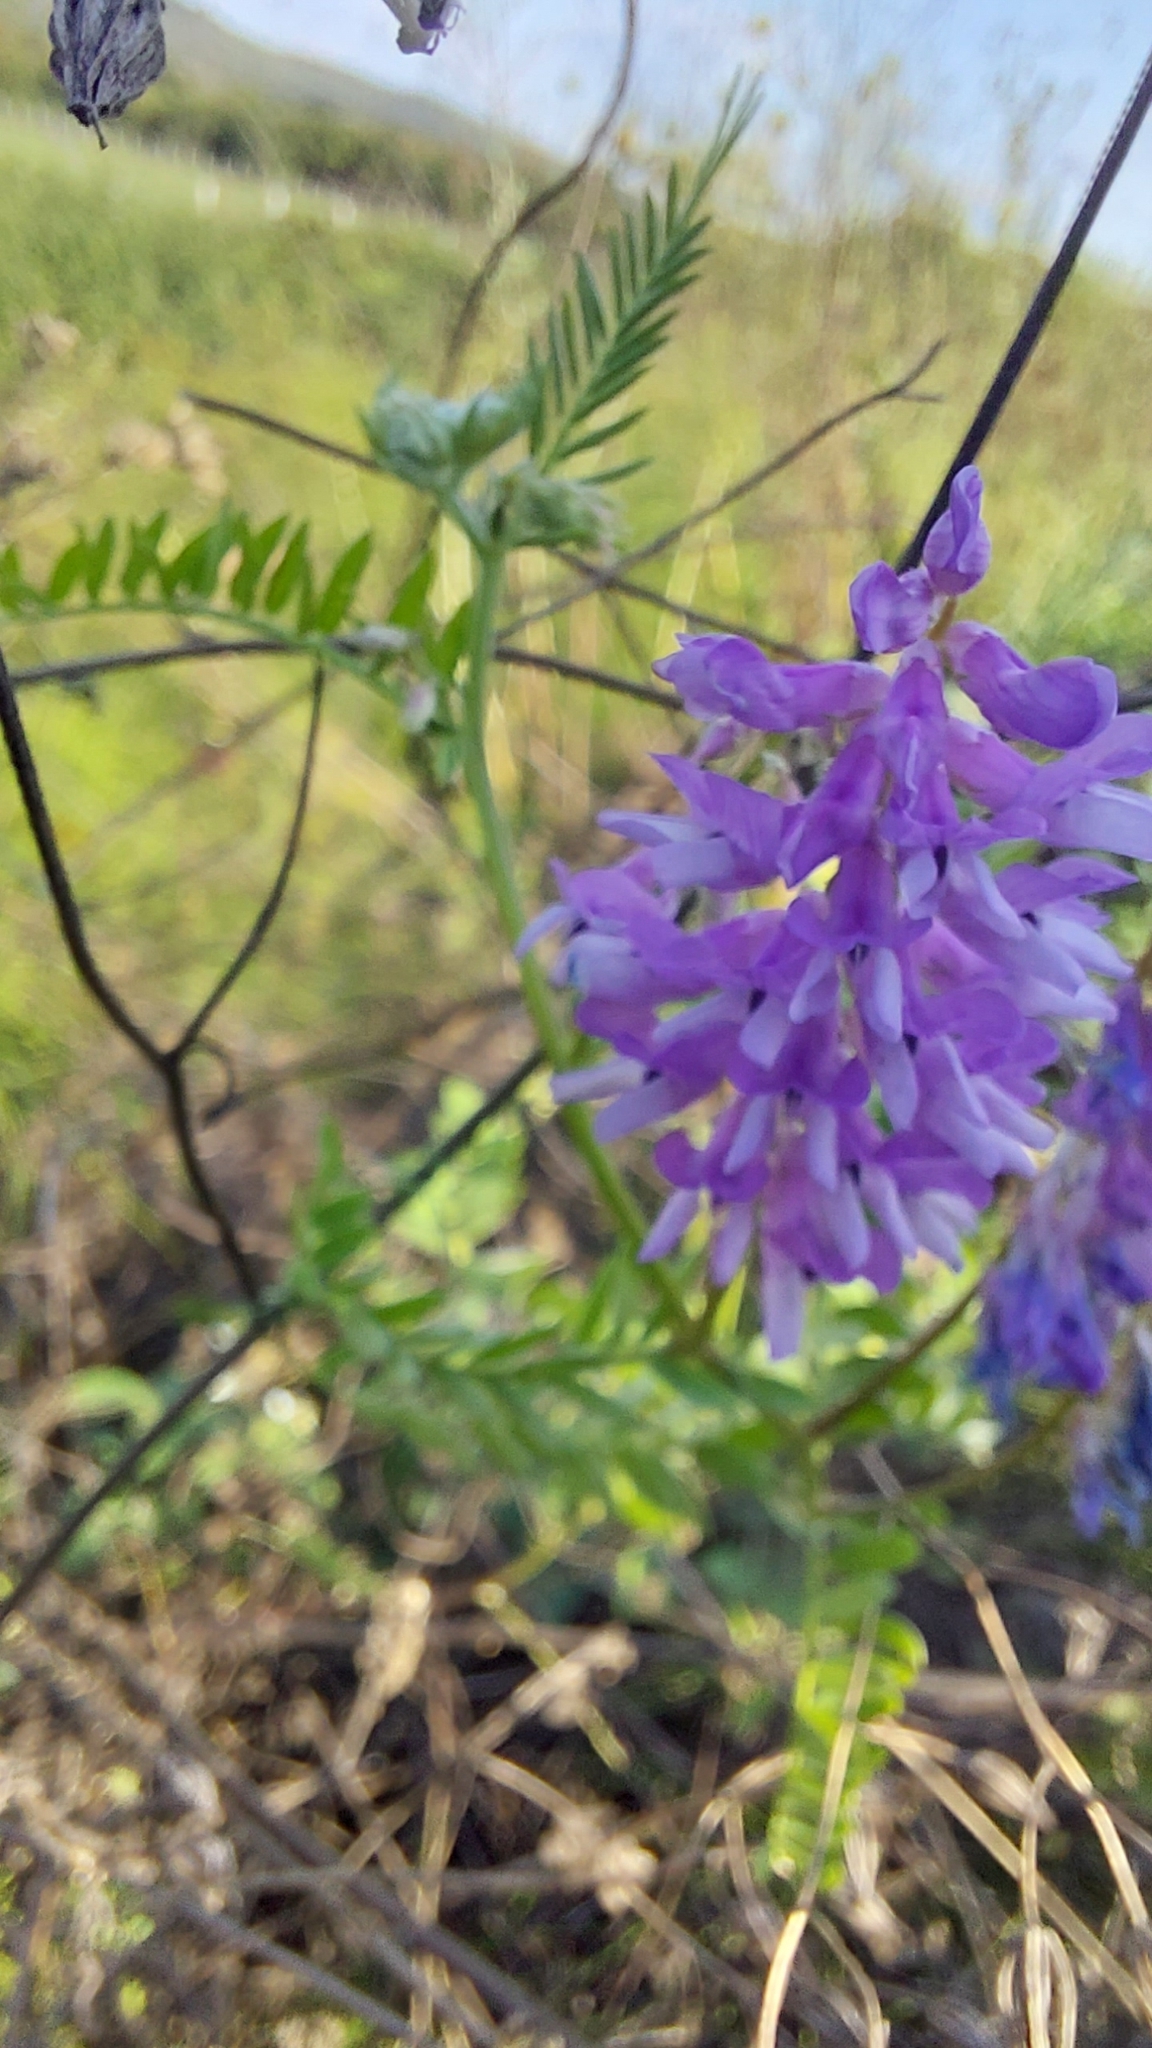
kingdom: Plantae
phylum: Tracheophyta
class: Magnoliopsida
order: Fabales
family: Fabaceae
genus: Vicia
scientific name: Vicia cracca
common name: Bird vetch
